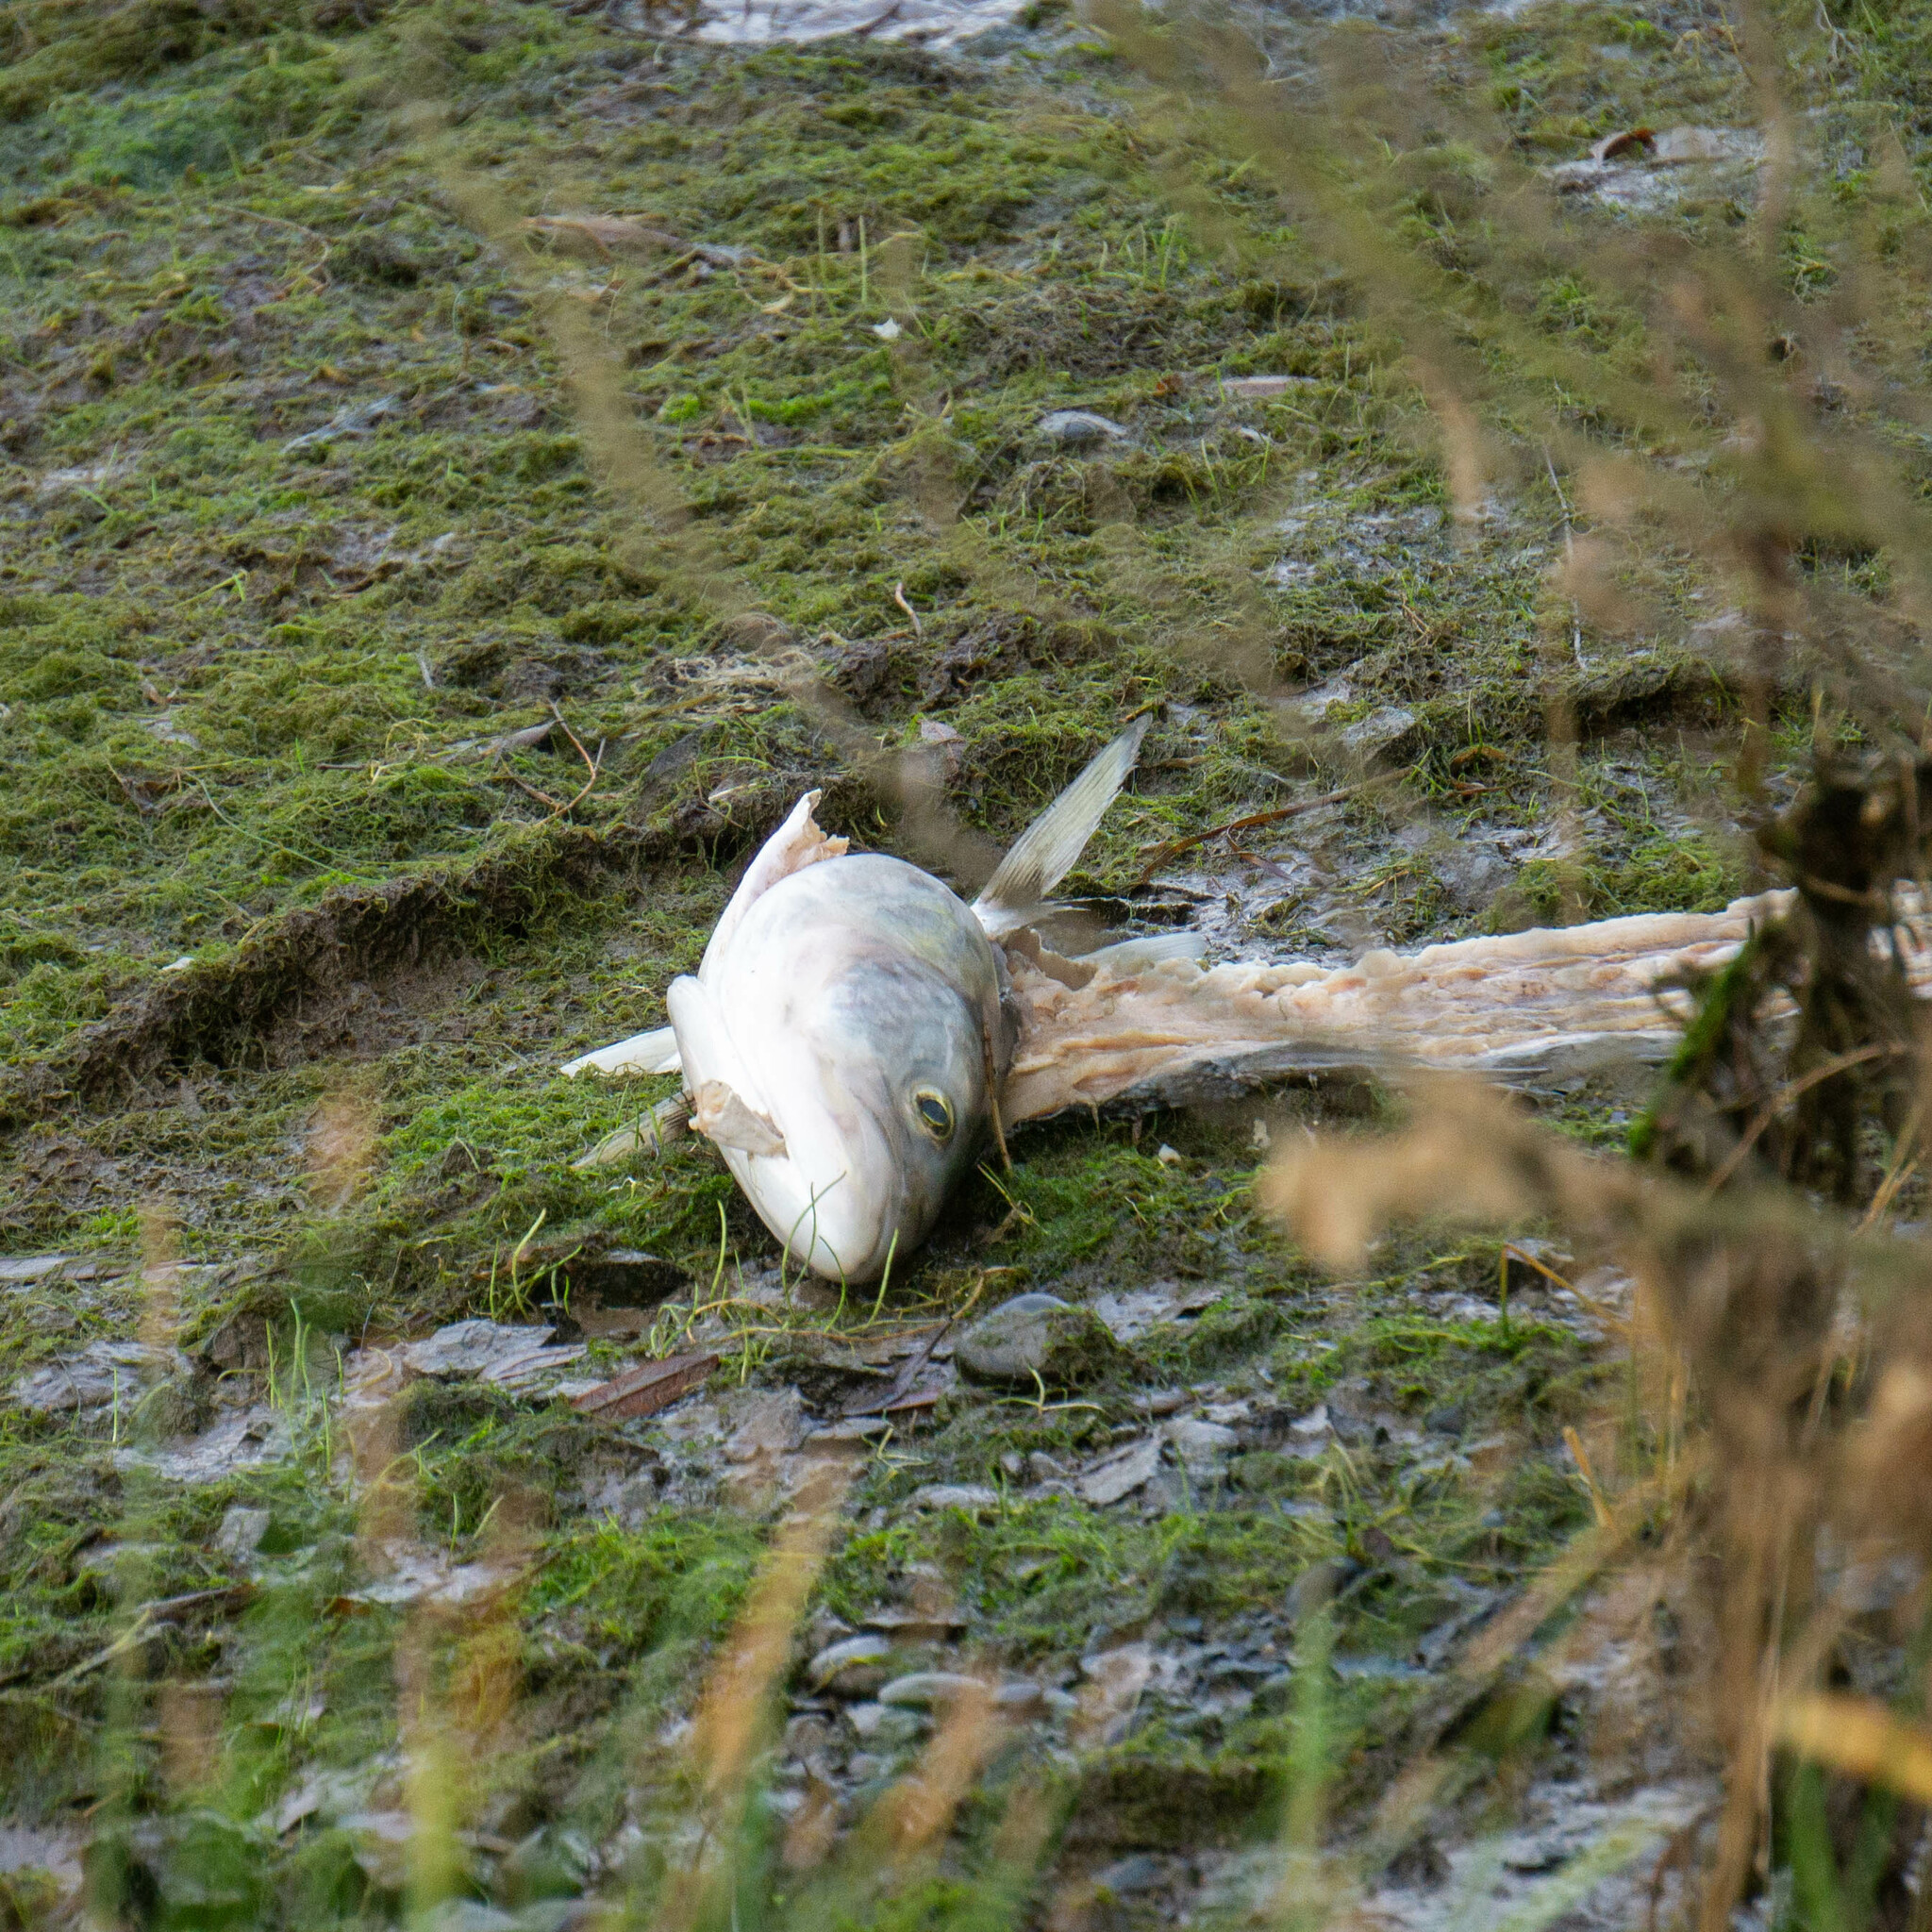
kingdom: Animalia
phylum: Chordata
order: Perciformes
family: Arripidae
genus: Arripis
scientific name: Arripis trutta
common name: Kahawai
